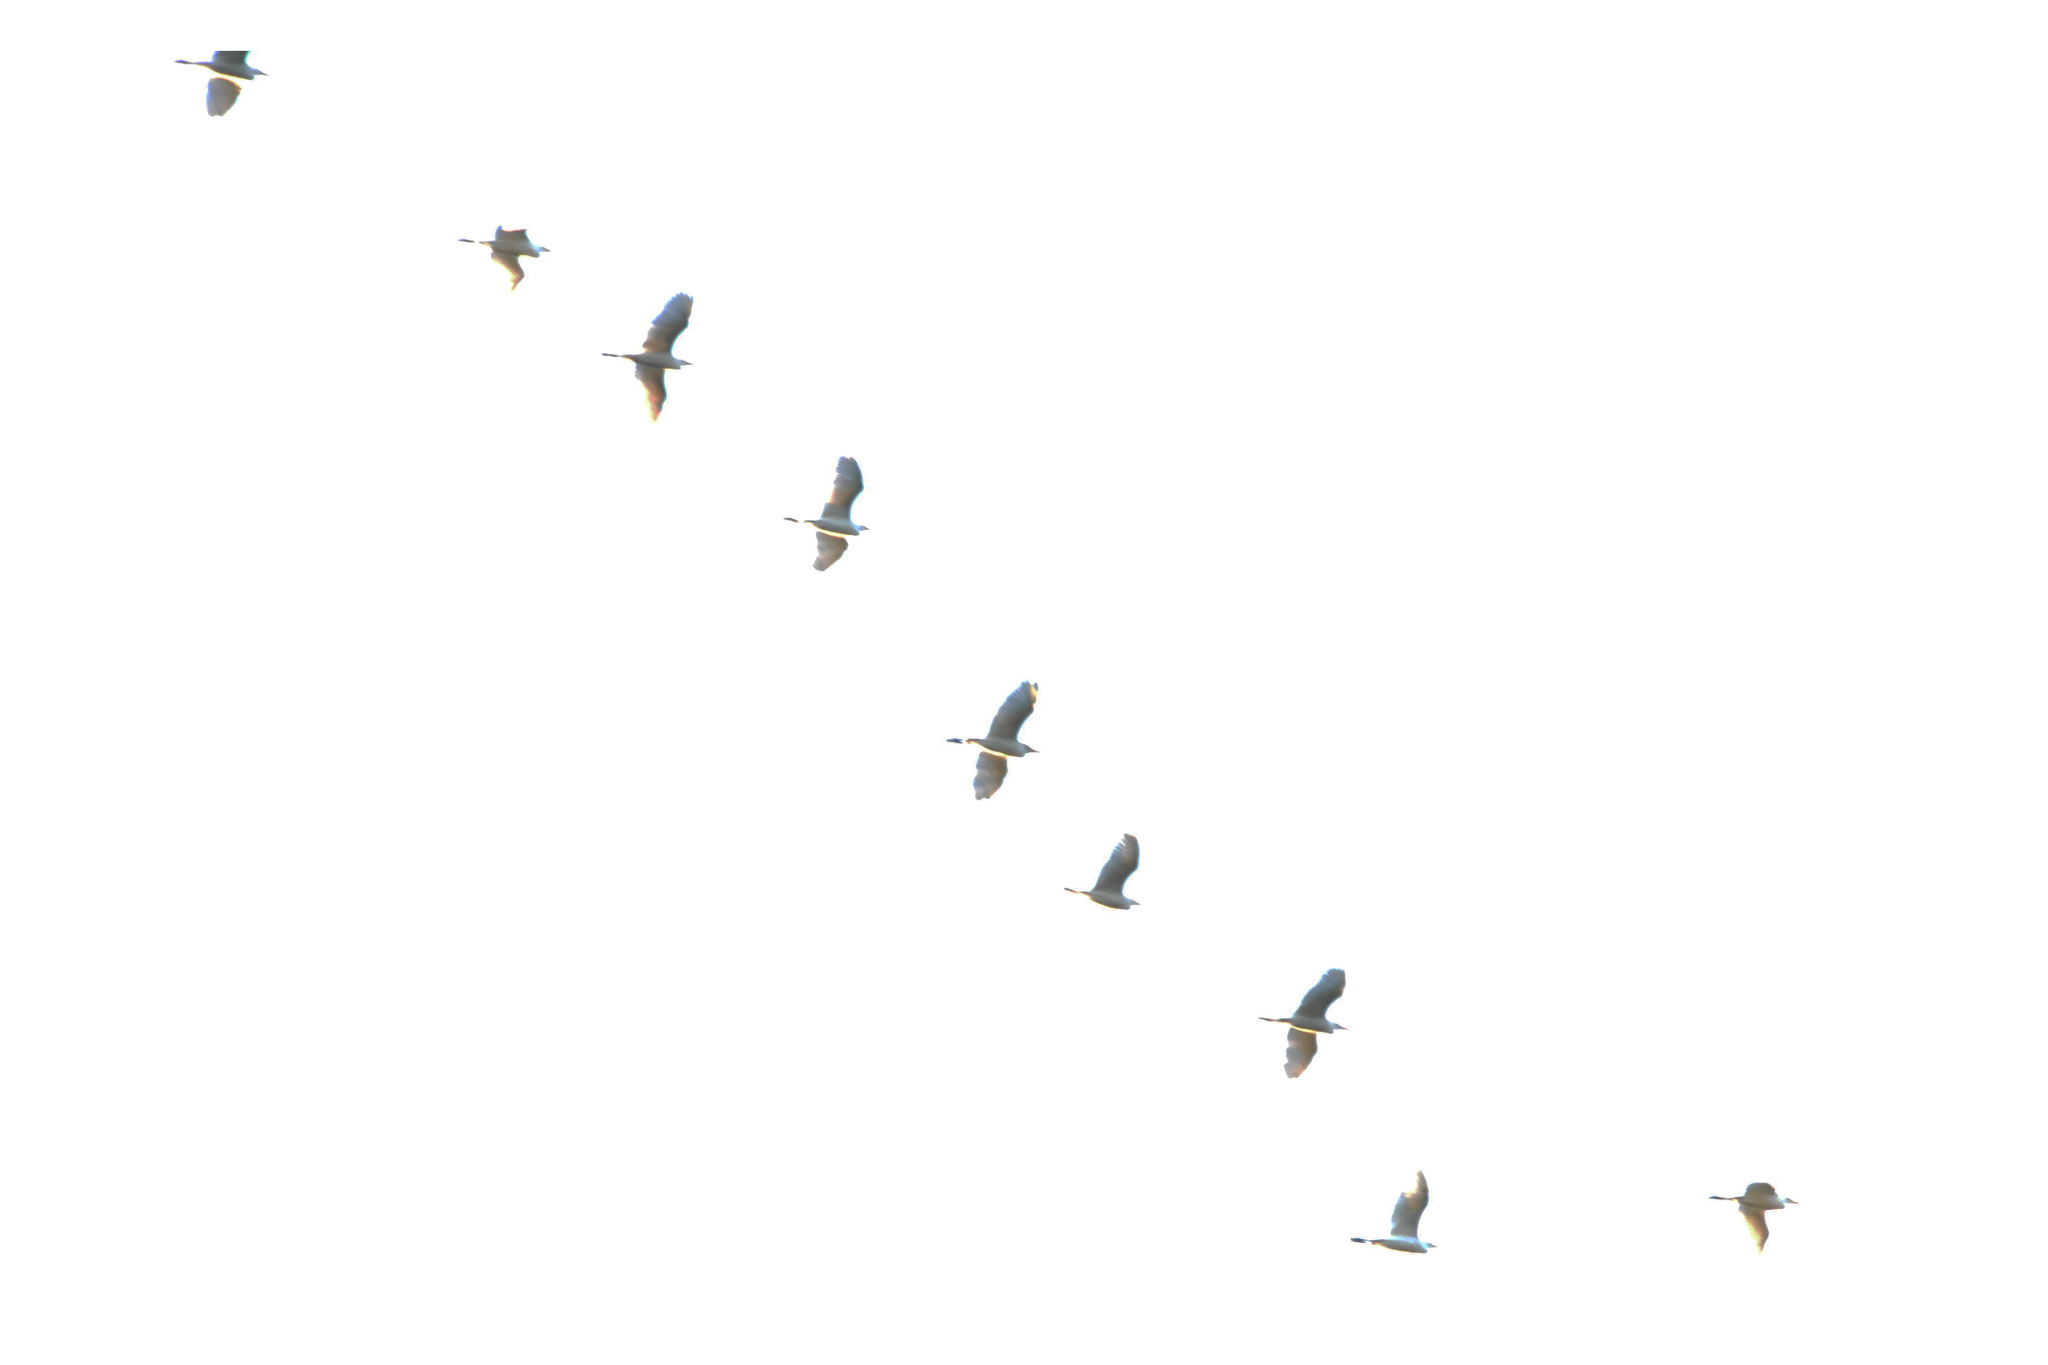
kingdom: Animalia
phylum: Chordata
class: Aves
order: Pelecaniformes
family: Ardeidae
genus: Bubulcus
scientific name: Bubulcus ibis
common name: Cattle egret
